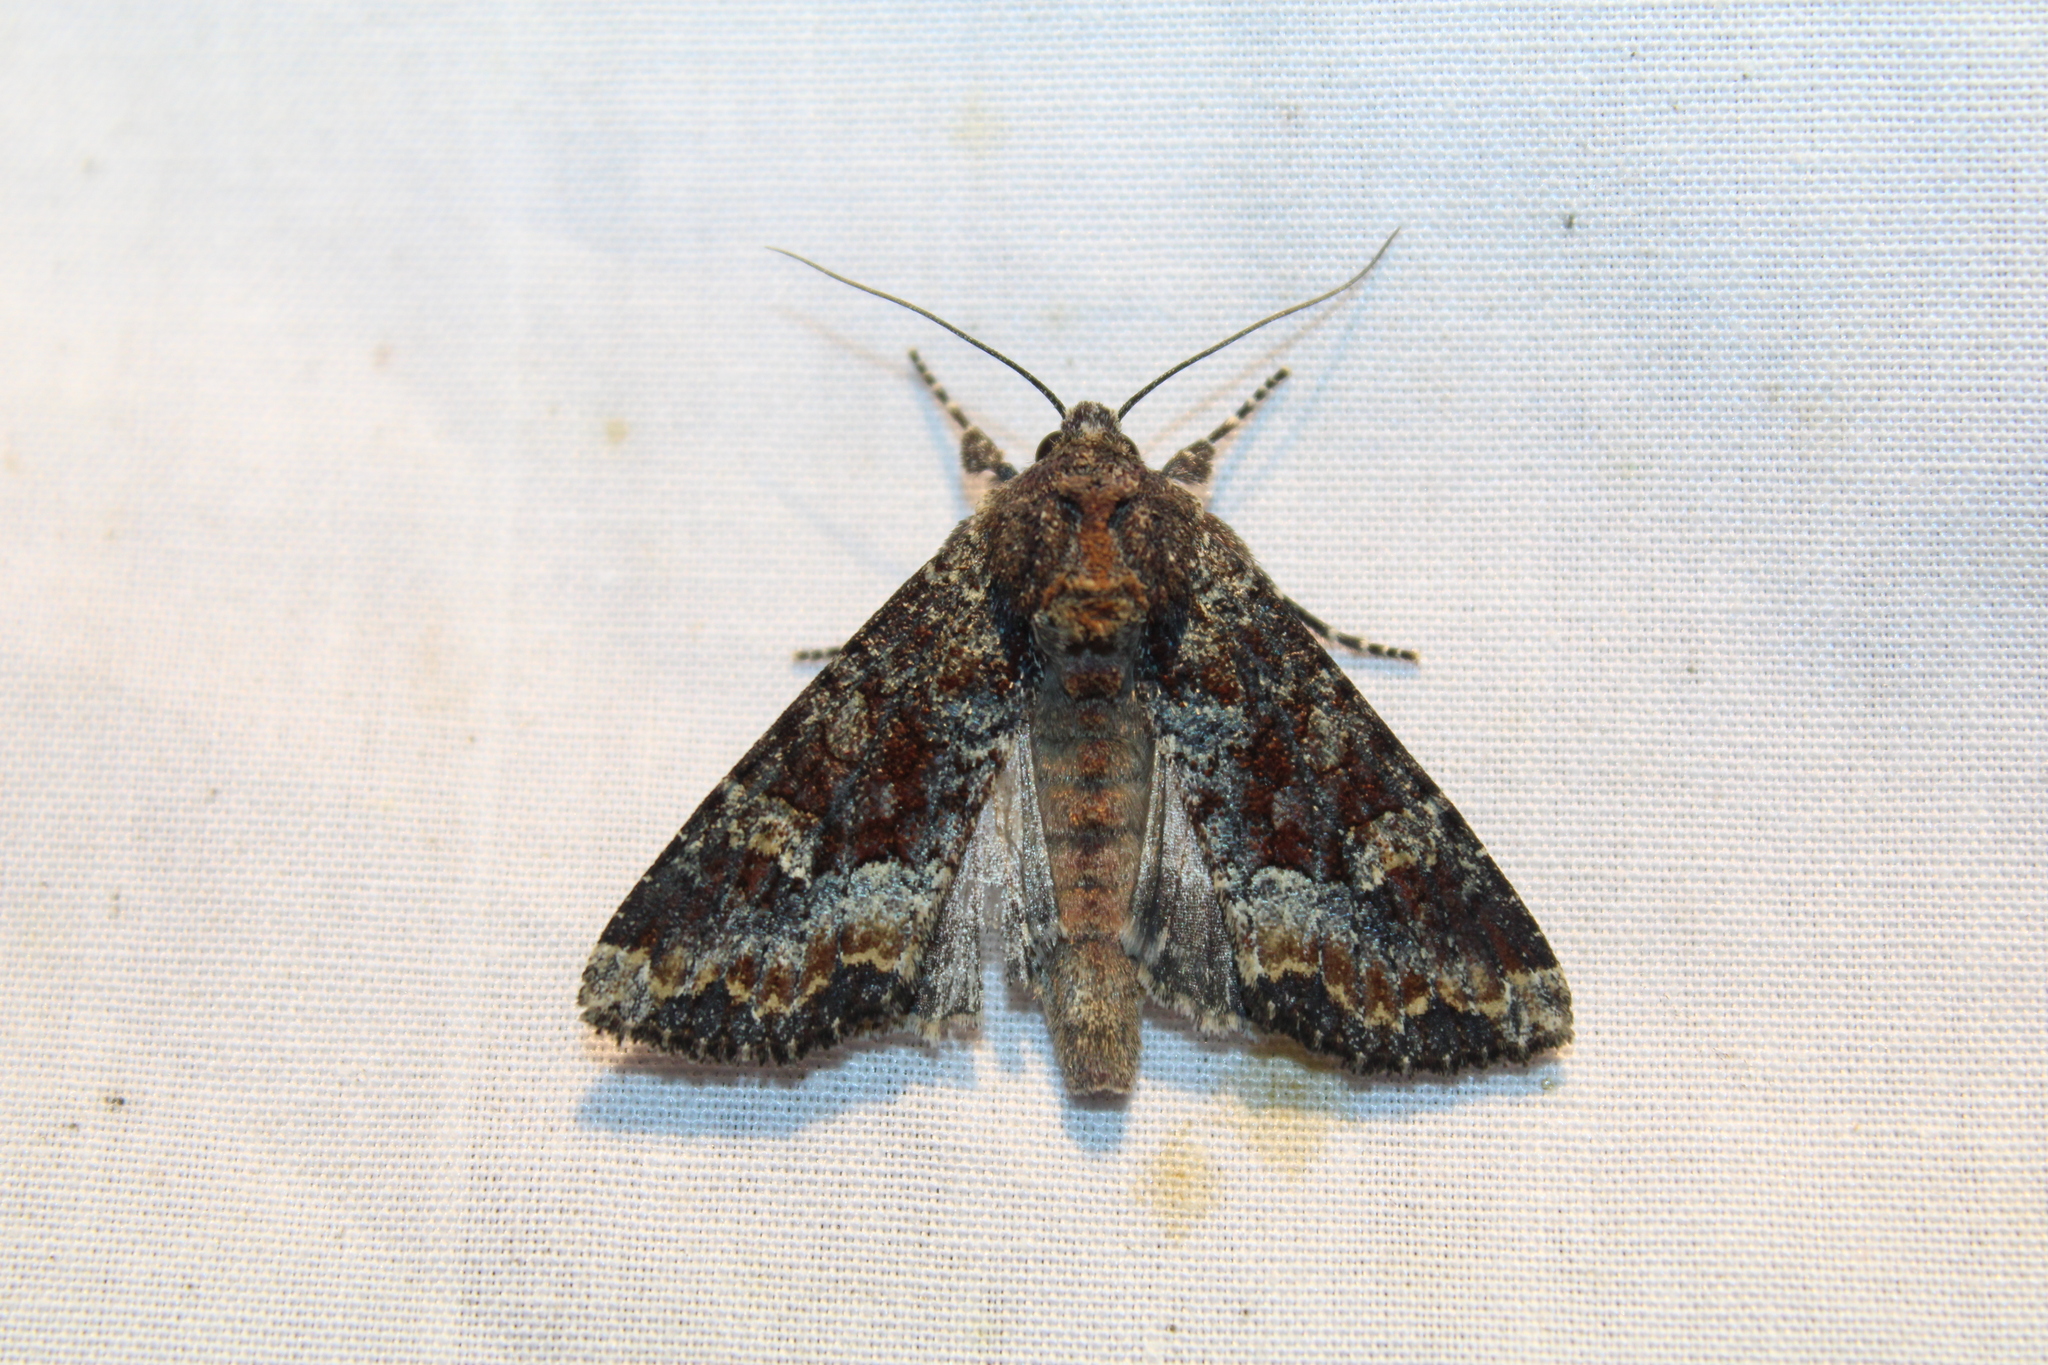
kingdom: Animalia
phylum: Arthropoda
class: Insecta
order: Lepidoptera
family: Noctuidae
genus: Apamea
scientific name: Apamea amputatrix
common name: Yellow-headed cutworm moth
